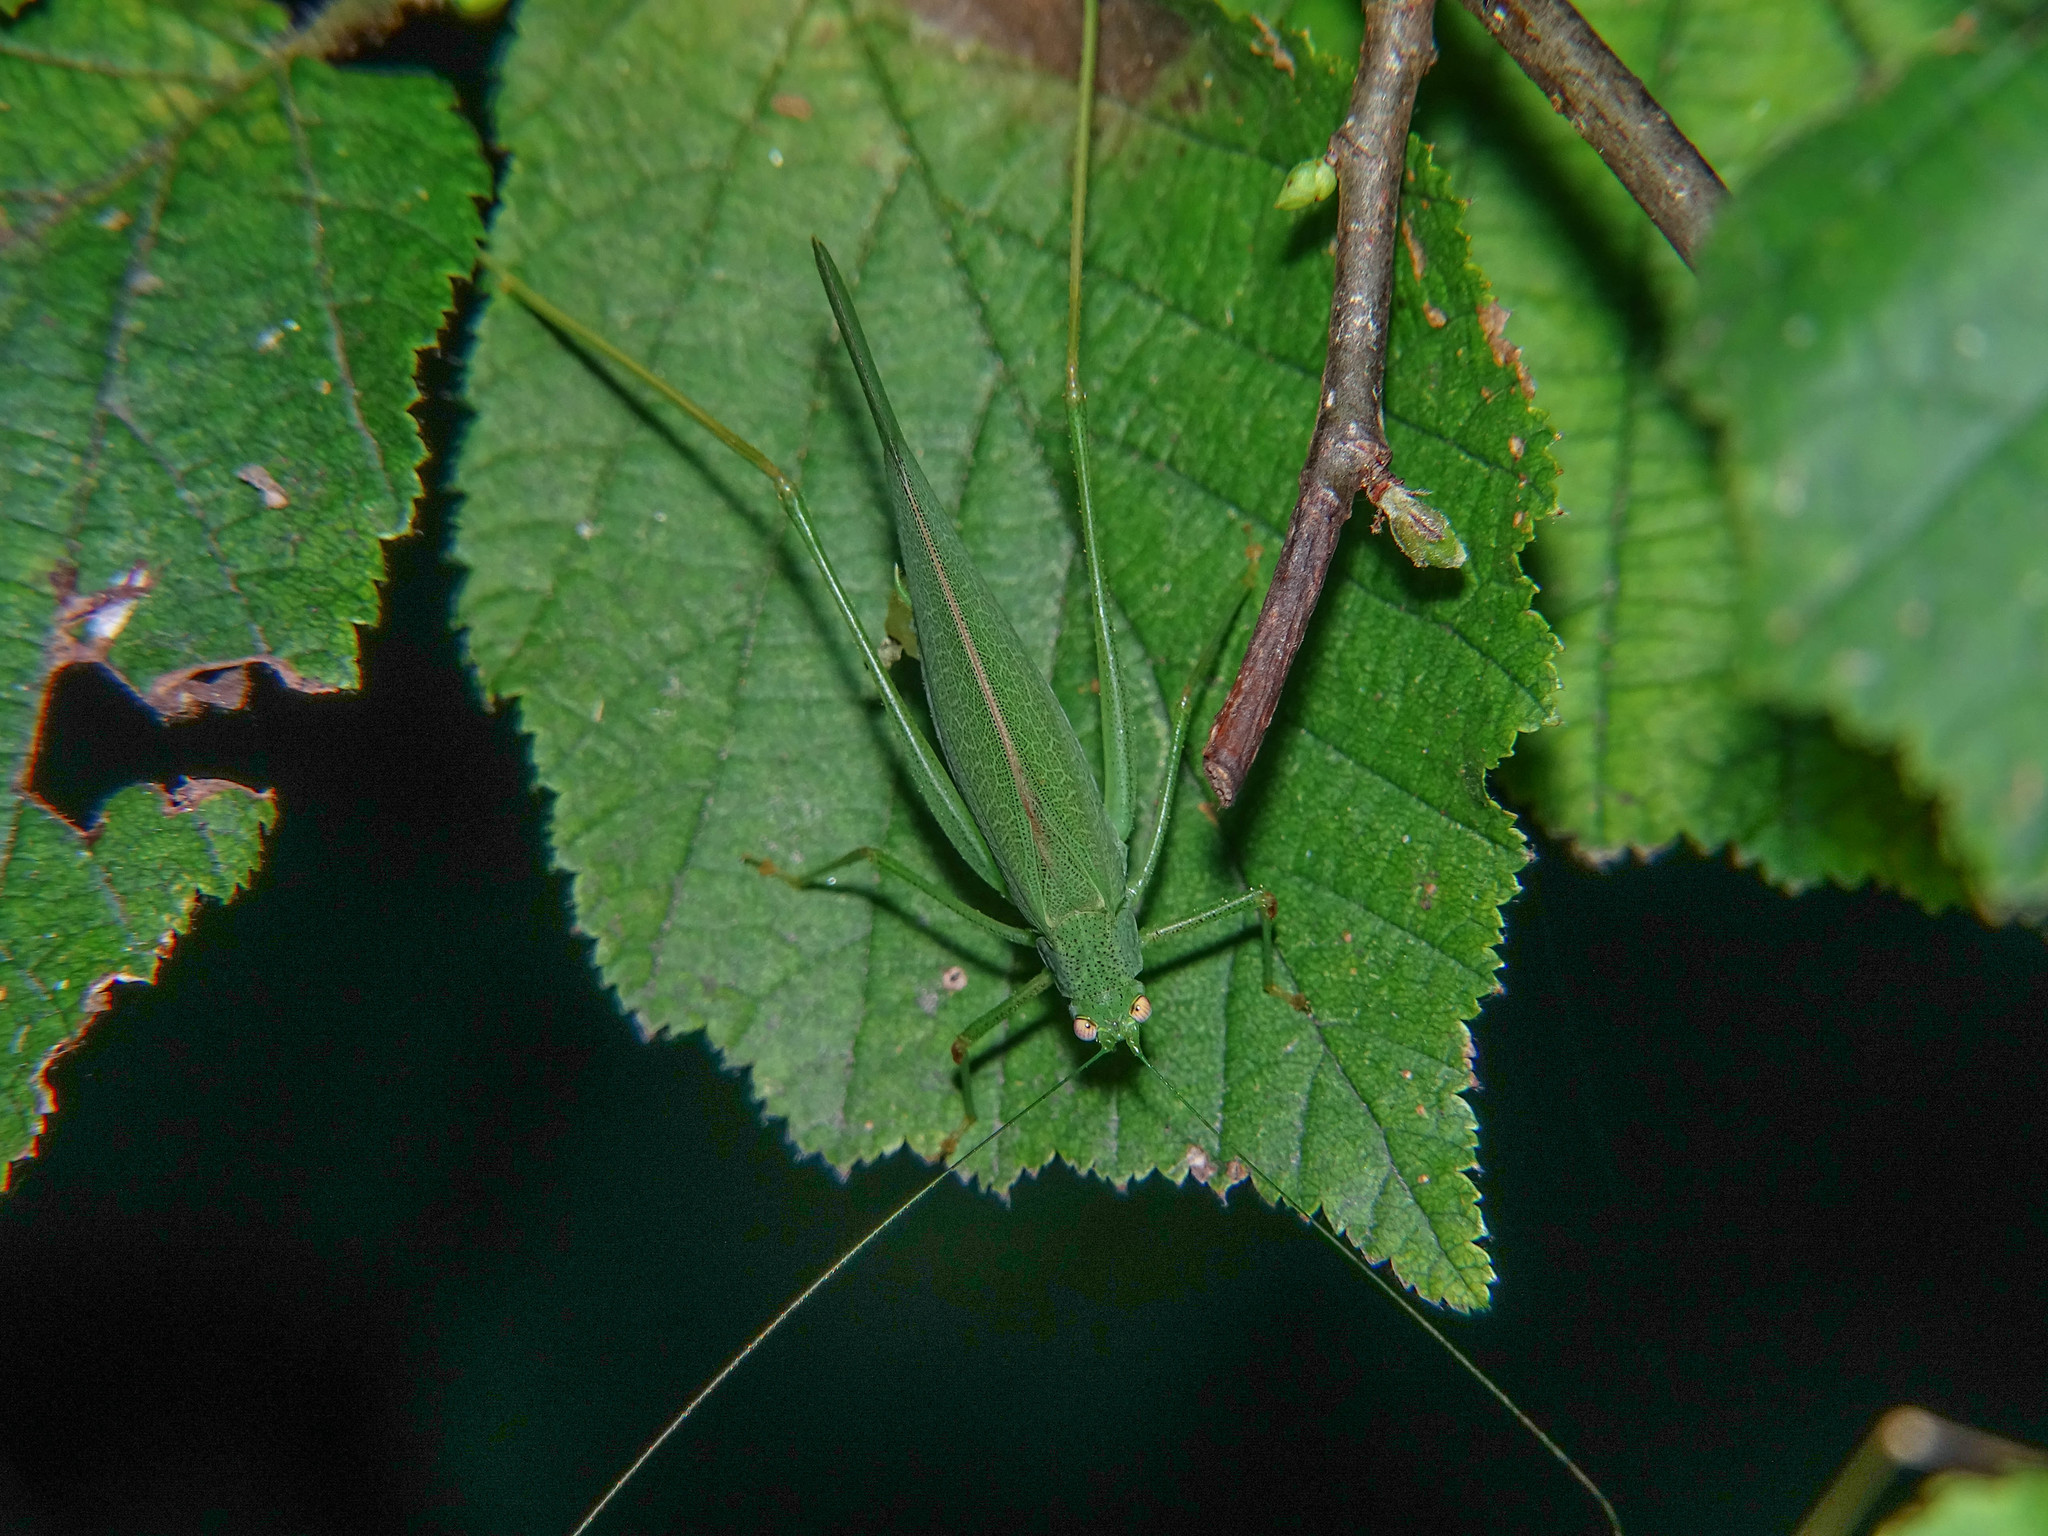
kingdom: Animalia
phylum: Arthropoda
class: Insecta
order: Orthoptera
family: Tettigoniidae
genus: Phaneroptera
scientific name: Phaneroptera nana
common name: Southern sickle bush-cricket
